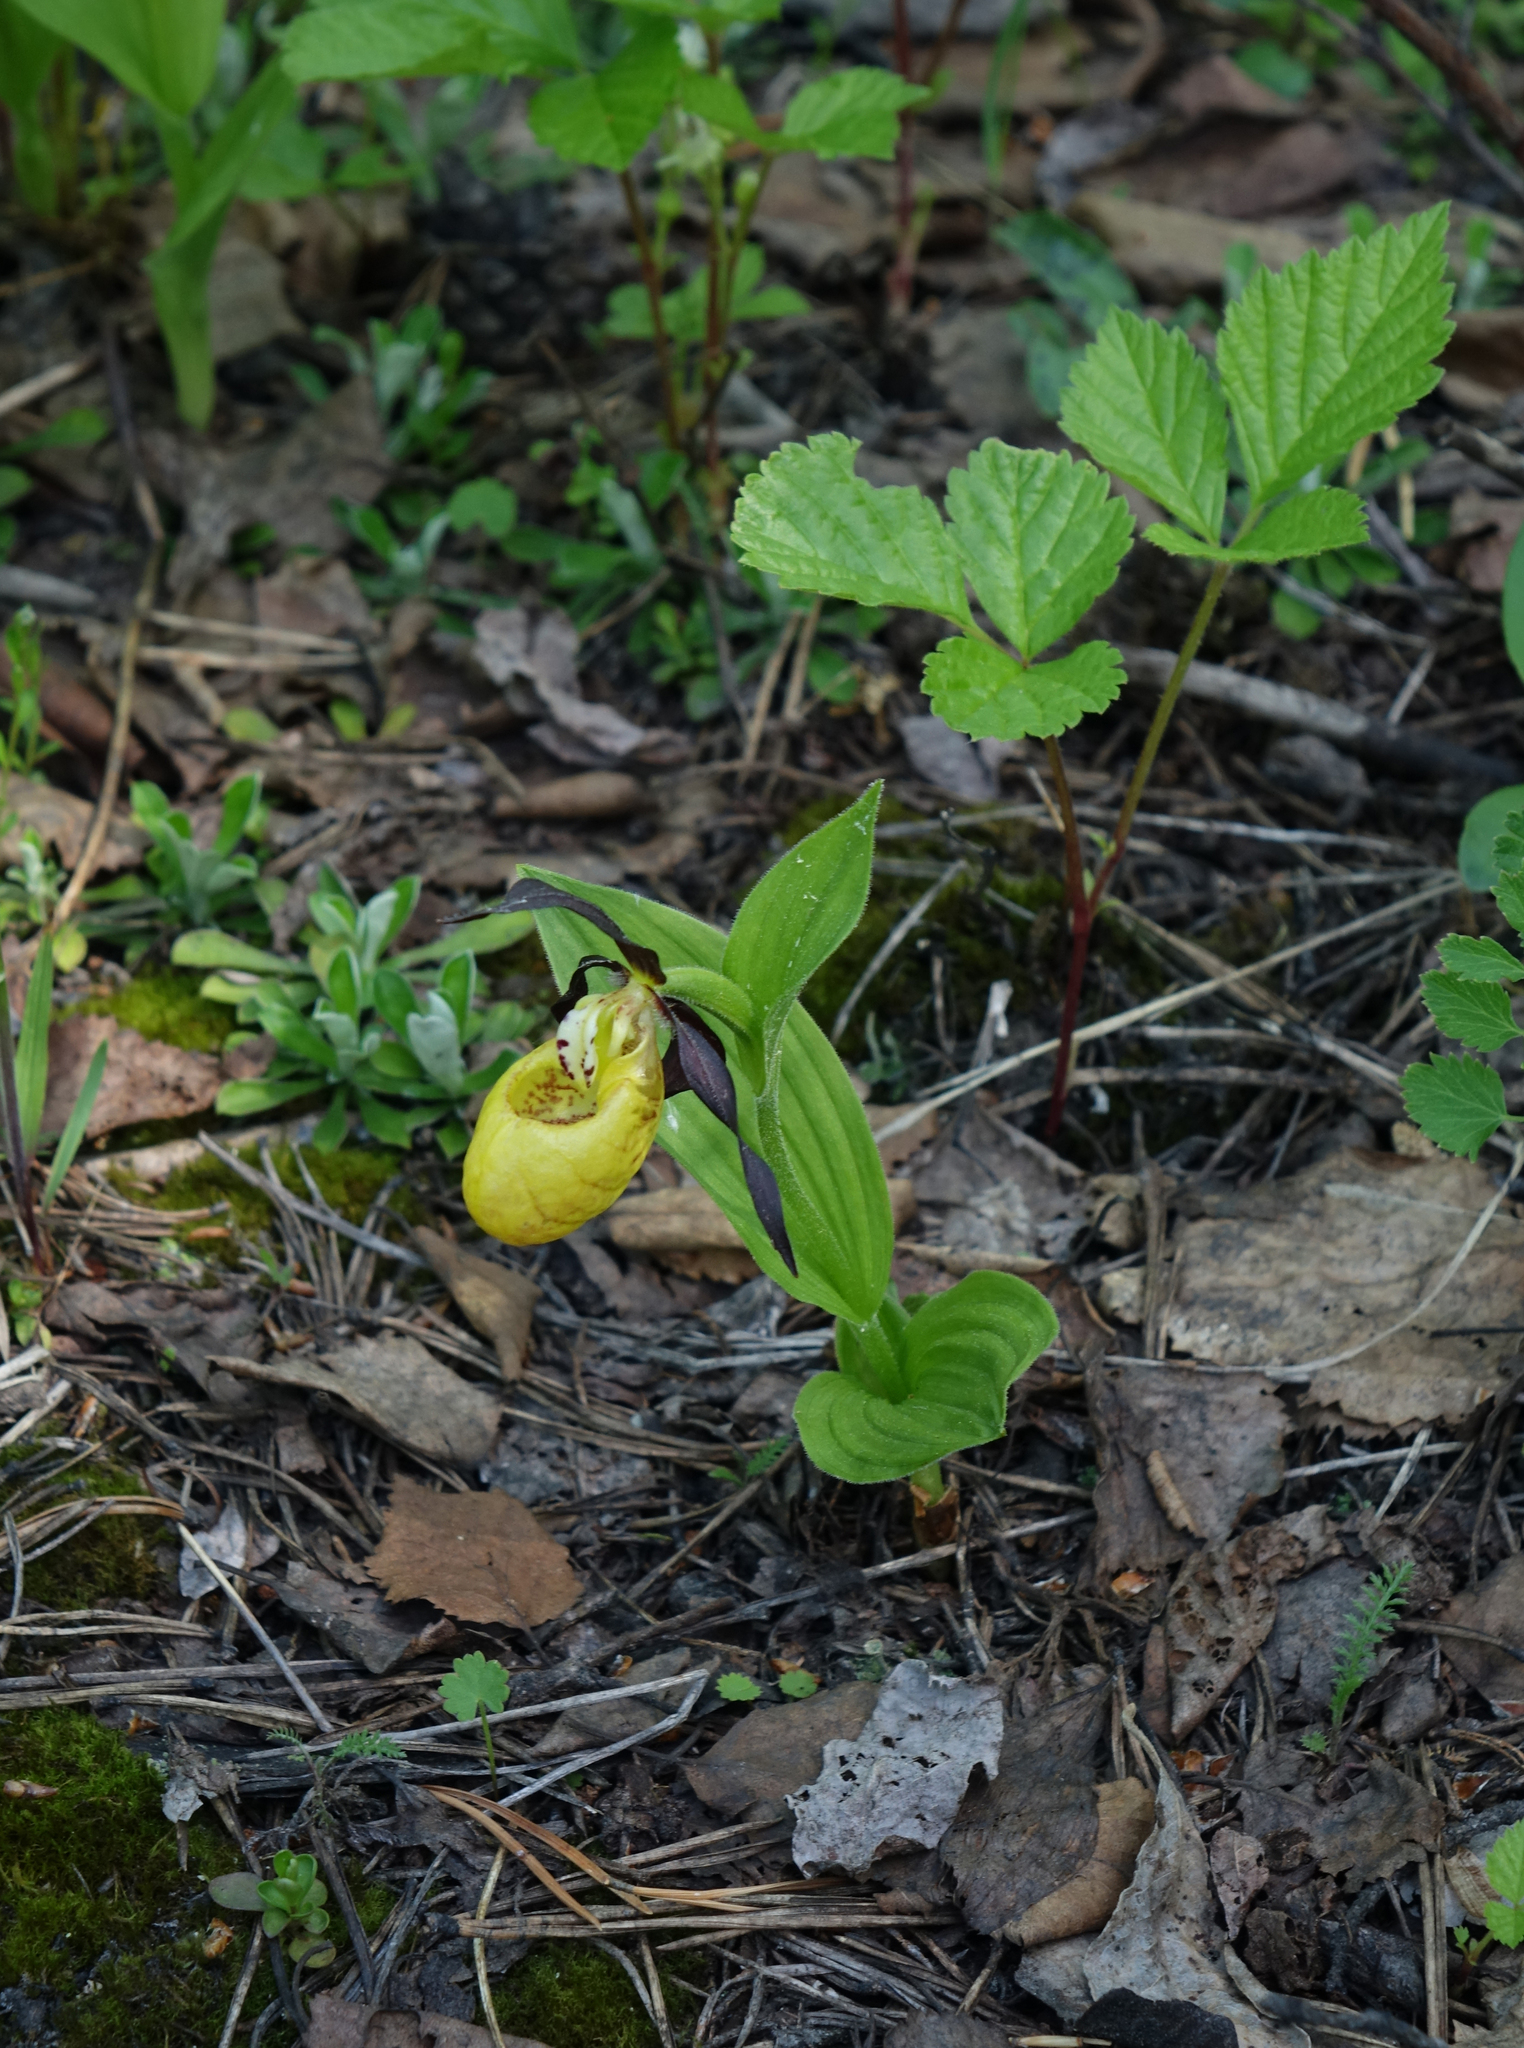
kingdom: Plantae
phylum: Tracheophyta
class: Liliopsida
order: Asparagales
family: Orchidaceae
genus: Cypripedium
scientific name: Cypripedium calceolus
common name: Lady's-slipper
